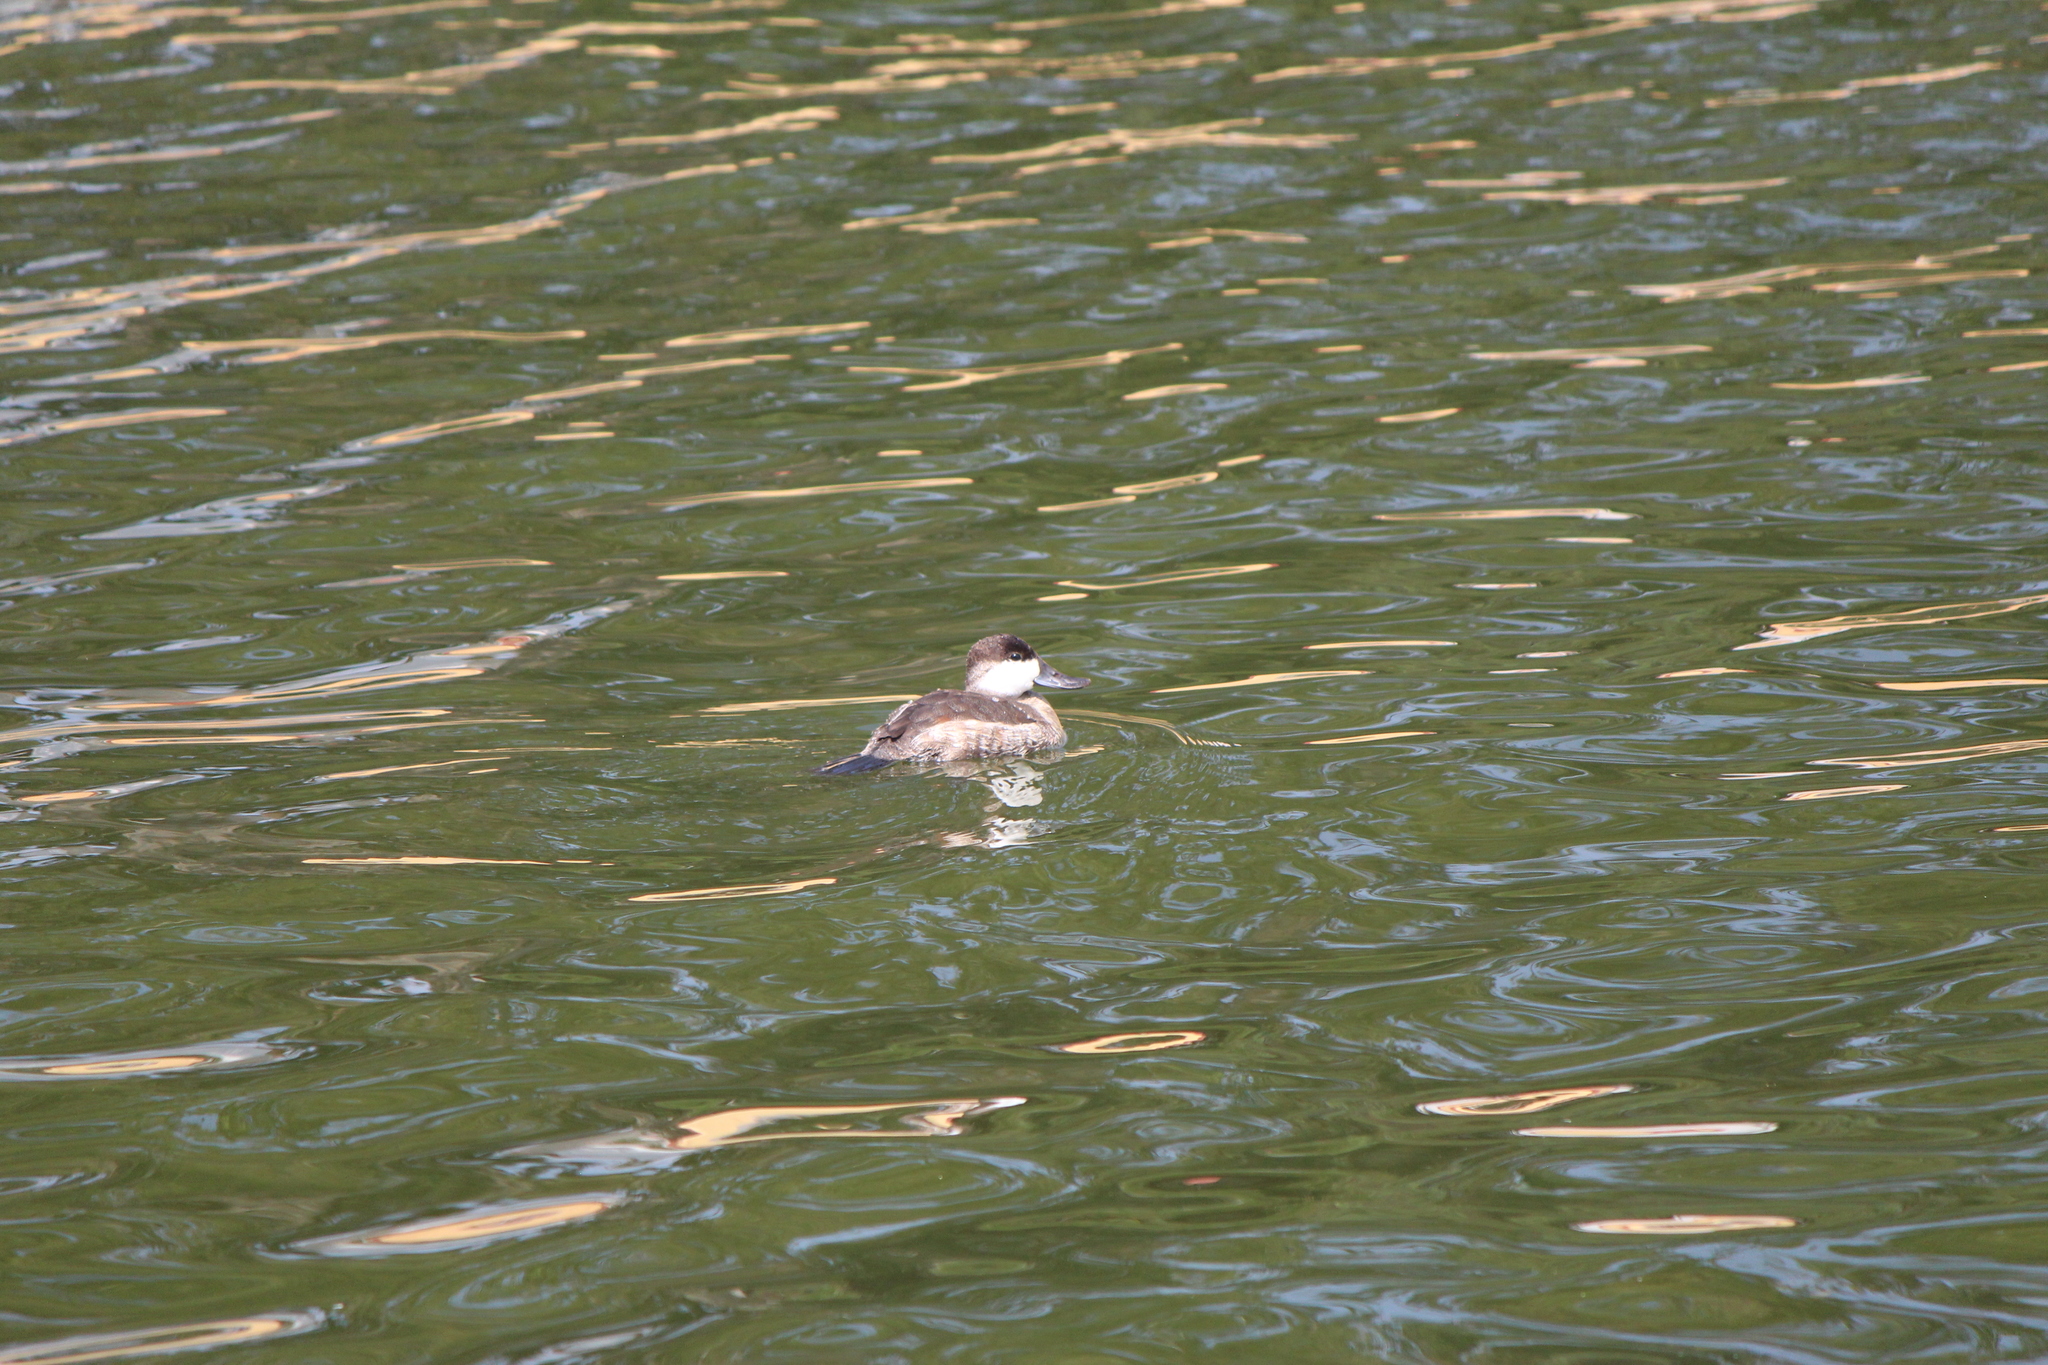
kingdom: Animalia
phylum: Chordata
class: Aves
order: Anseriformes
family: Anatidae
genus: Oxyura
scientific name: Oxyura jamaicensis
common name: Ruddy duck
